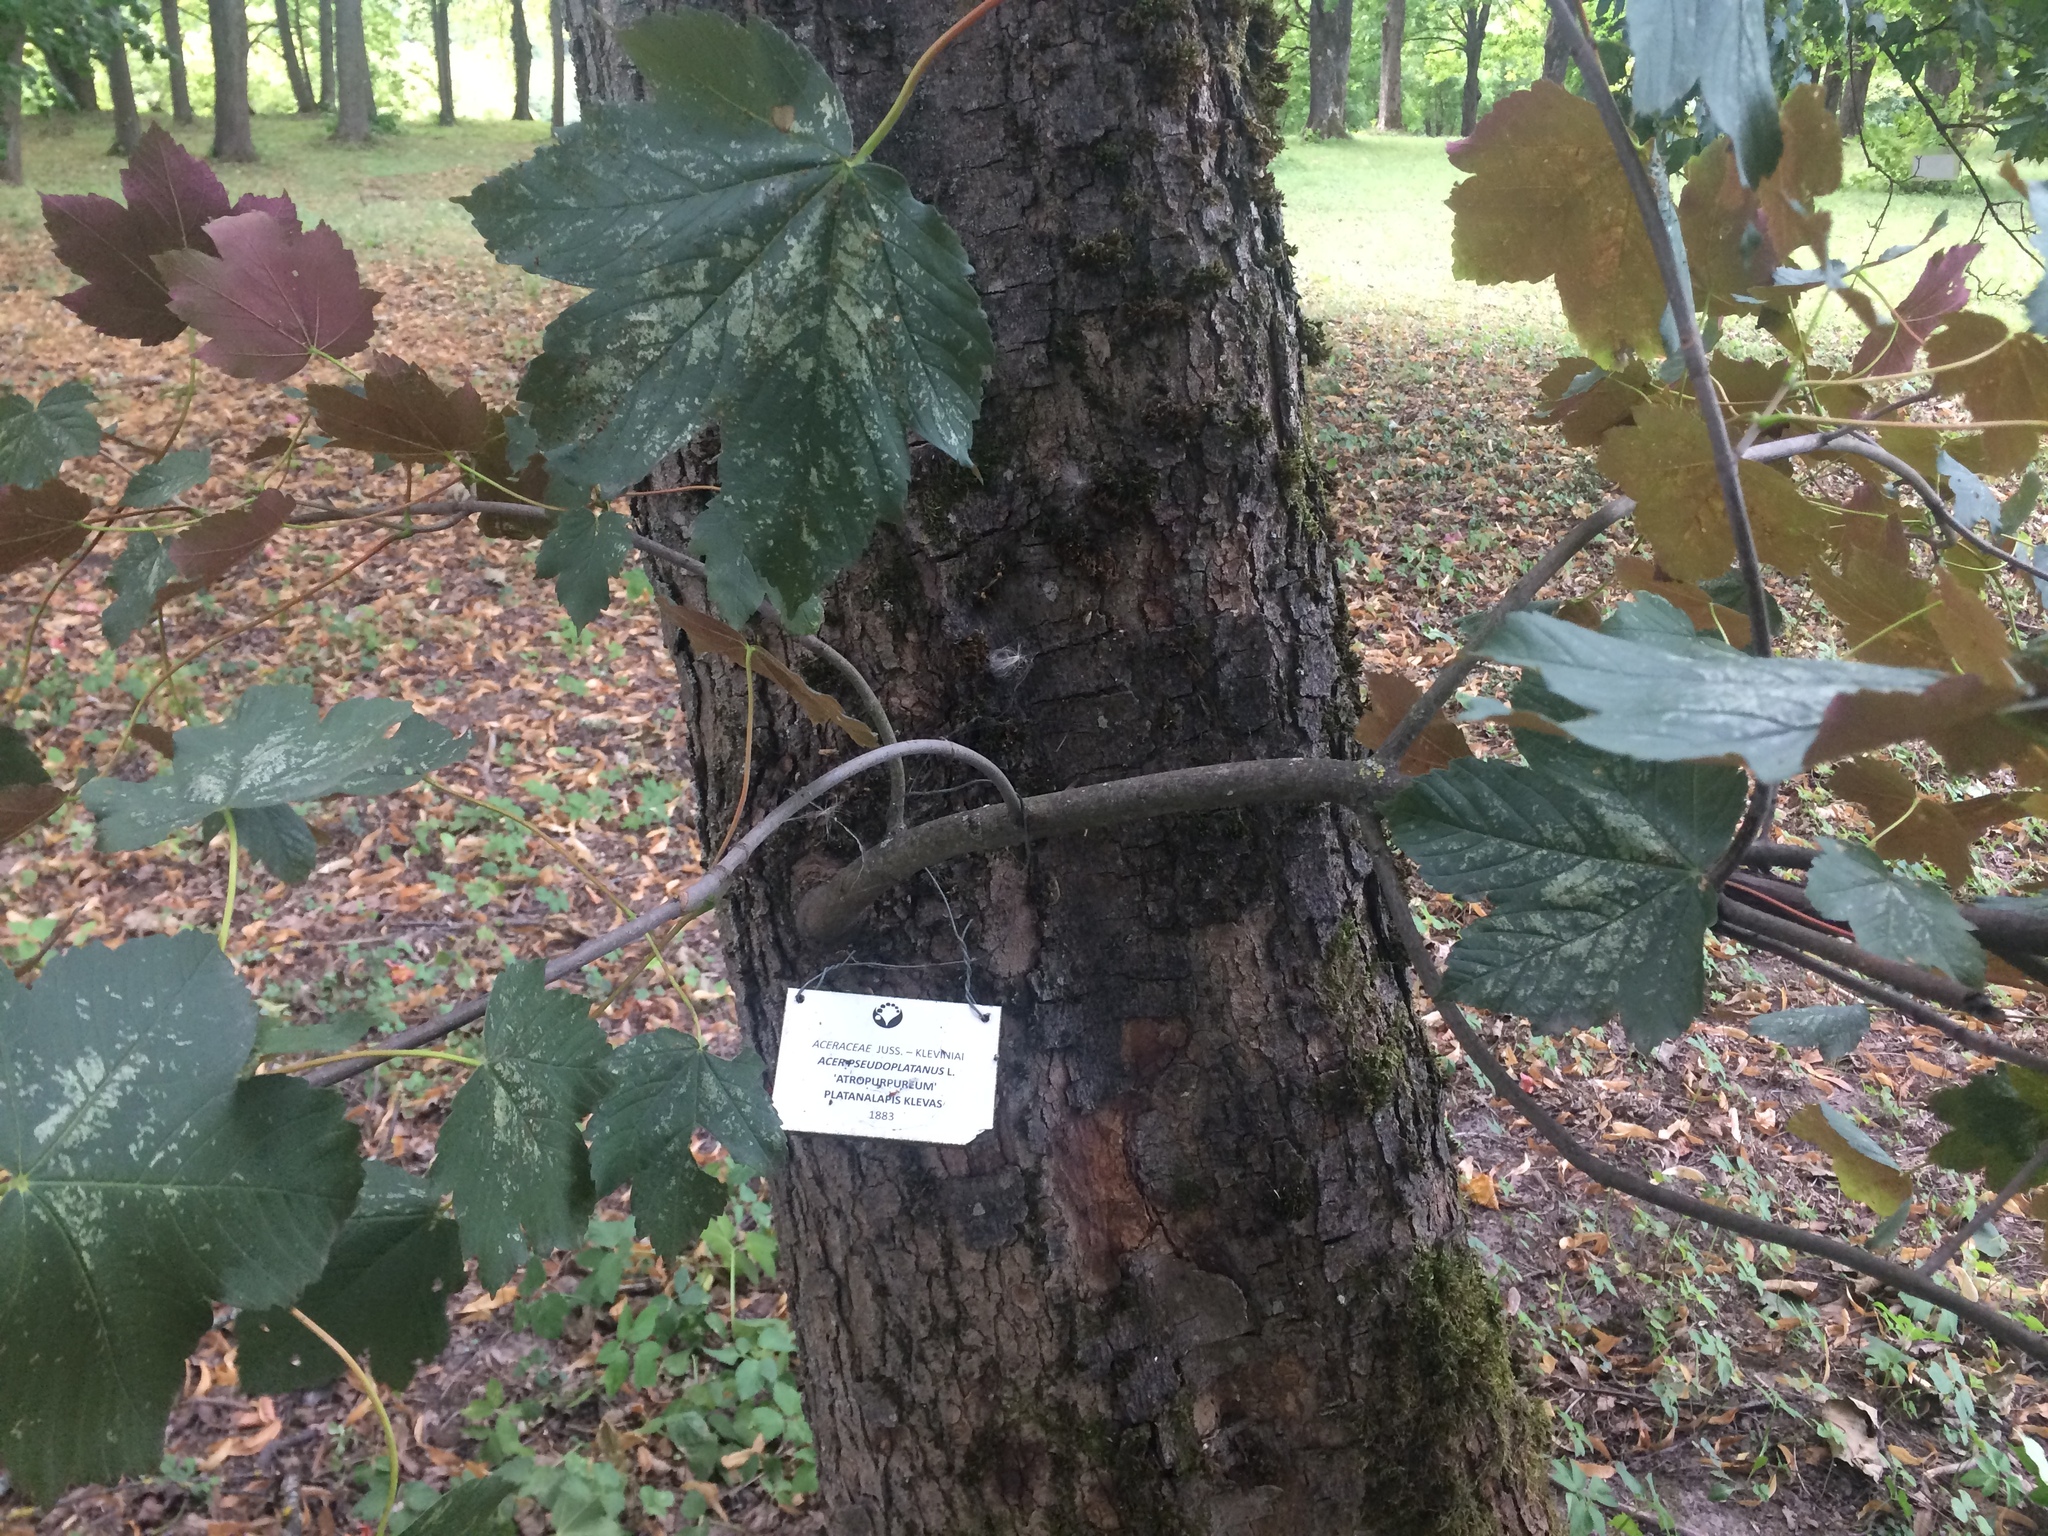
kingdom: Plantae
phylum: Tracheophyta
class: Magnoliopsida
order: Sapindales
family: Sapindaceae
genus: Acer
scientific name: Acer pseudoplatanus
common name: Sycamore
